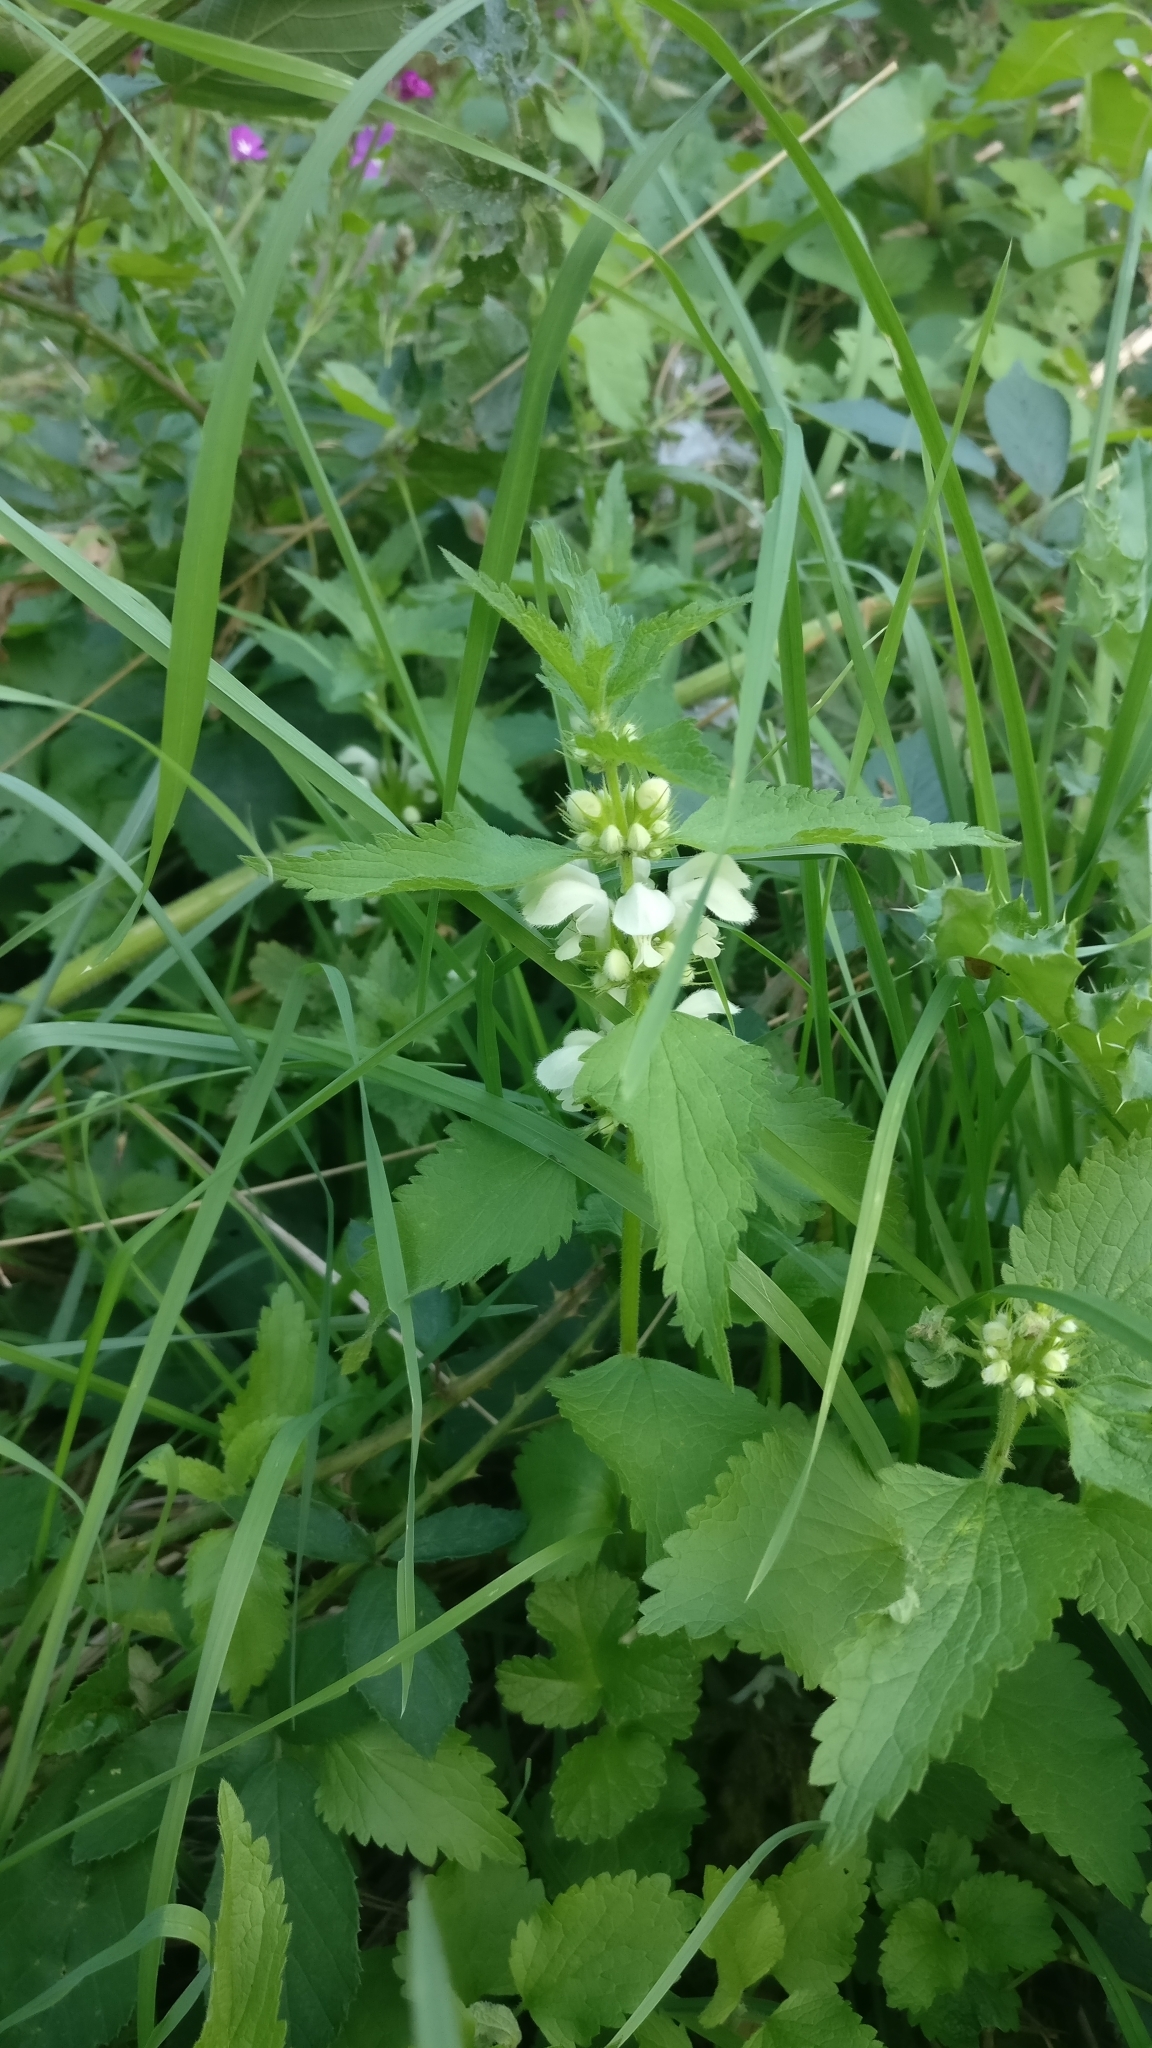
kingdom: Plantae
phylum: Tracheophyta
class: Magnoliopsida
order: Lamiales
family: Lamiaceae
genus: Lamium
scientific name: Lamium album
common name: White dead-nettle
